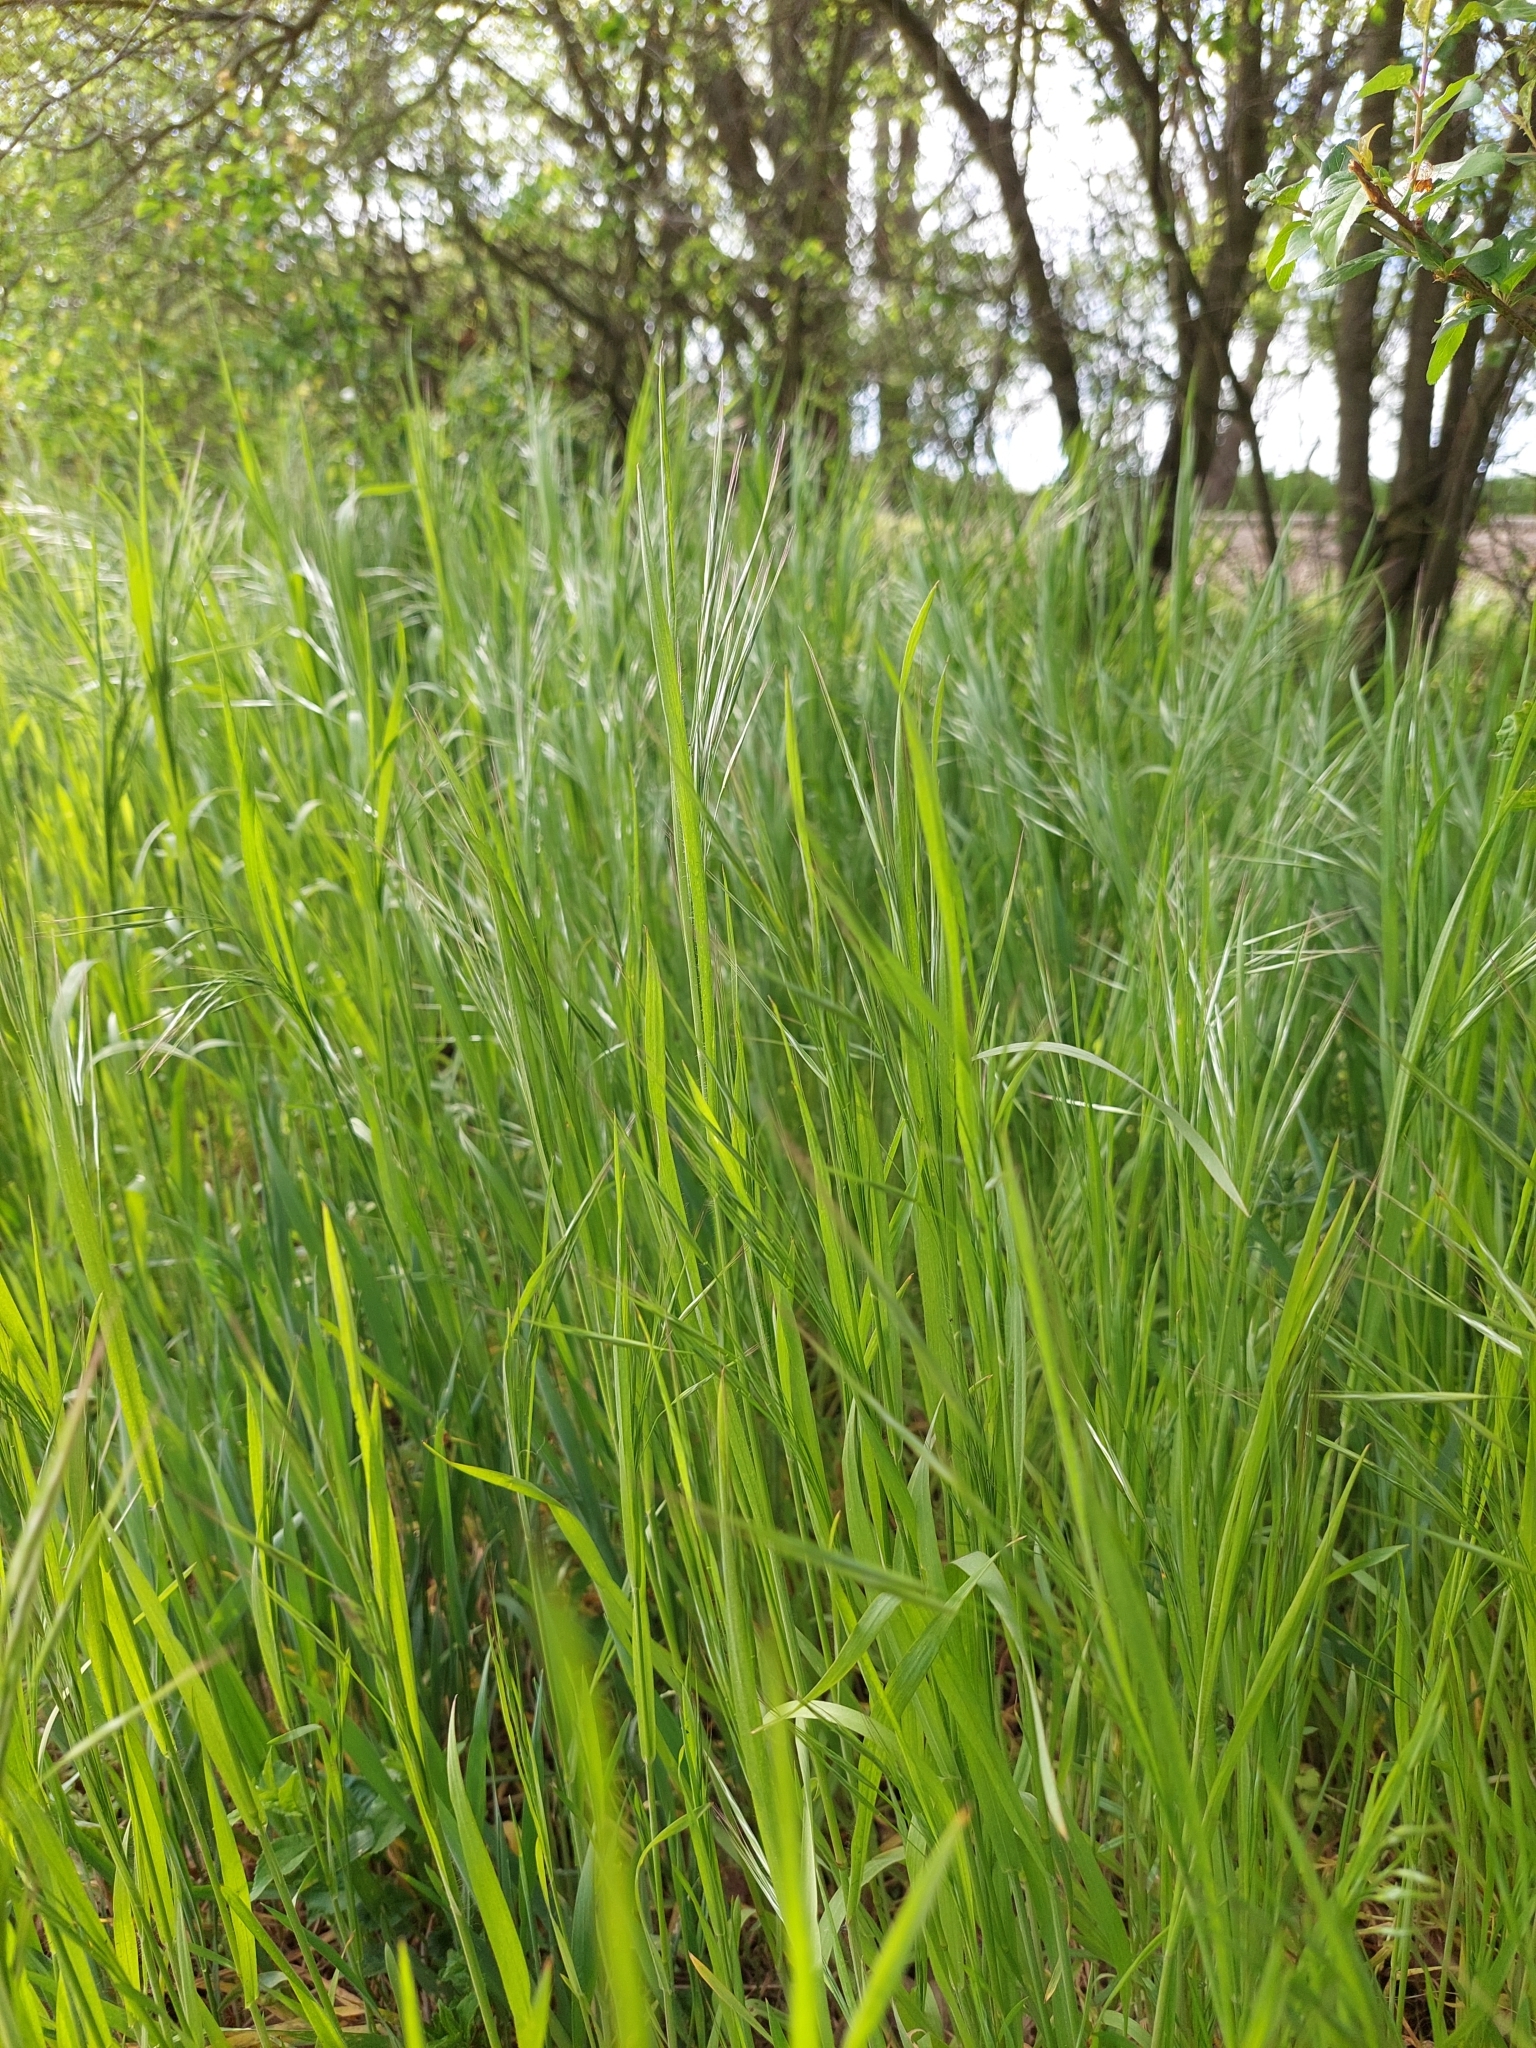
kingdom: Plantae
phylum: Tracheophyta
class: Liliopsida
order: Poales
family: Poaceae
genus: Bromus
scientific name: Bromus sterilis
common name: Poverty brome
